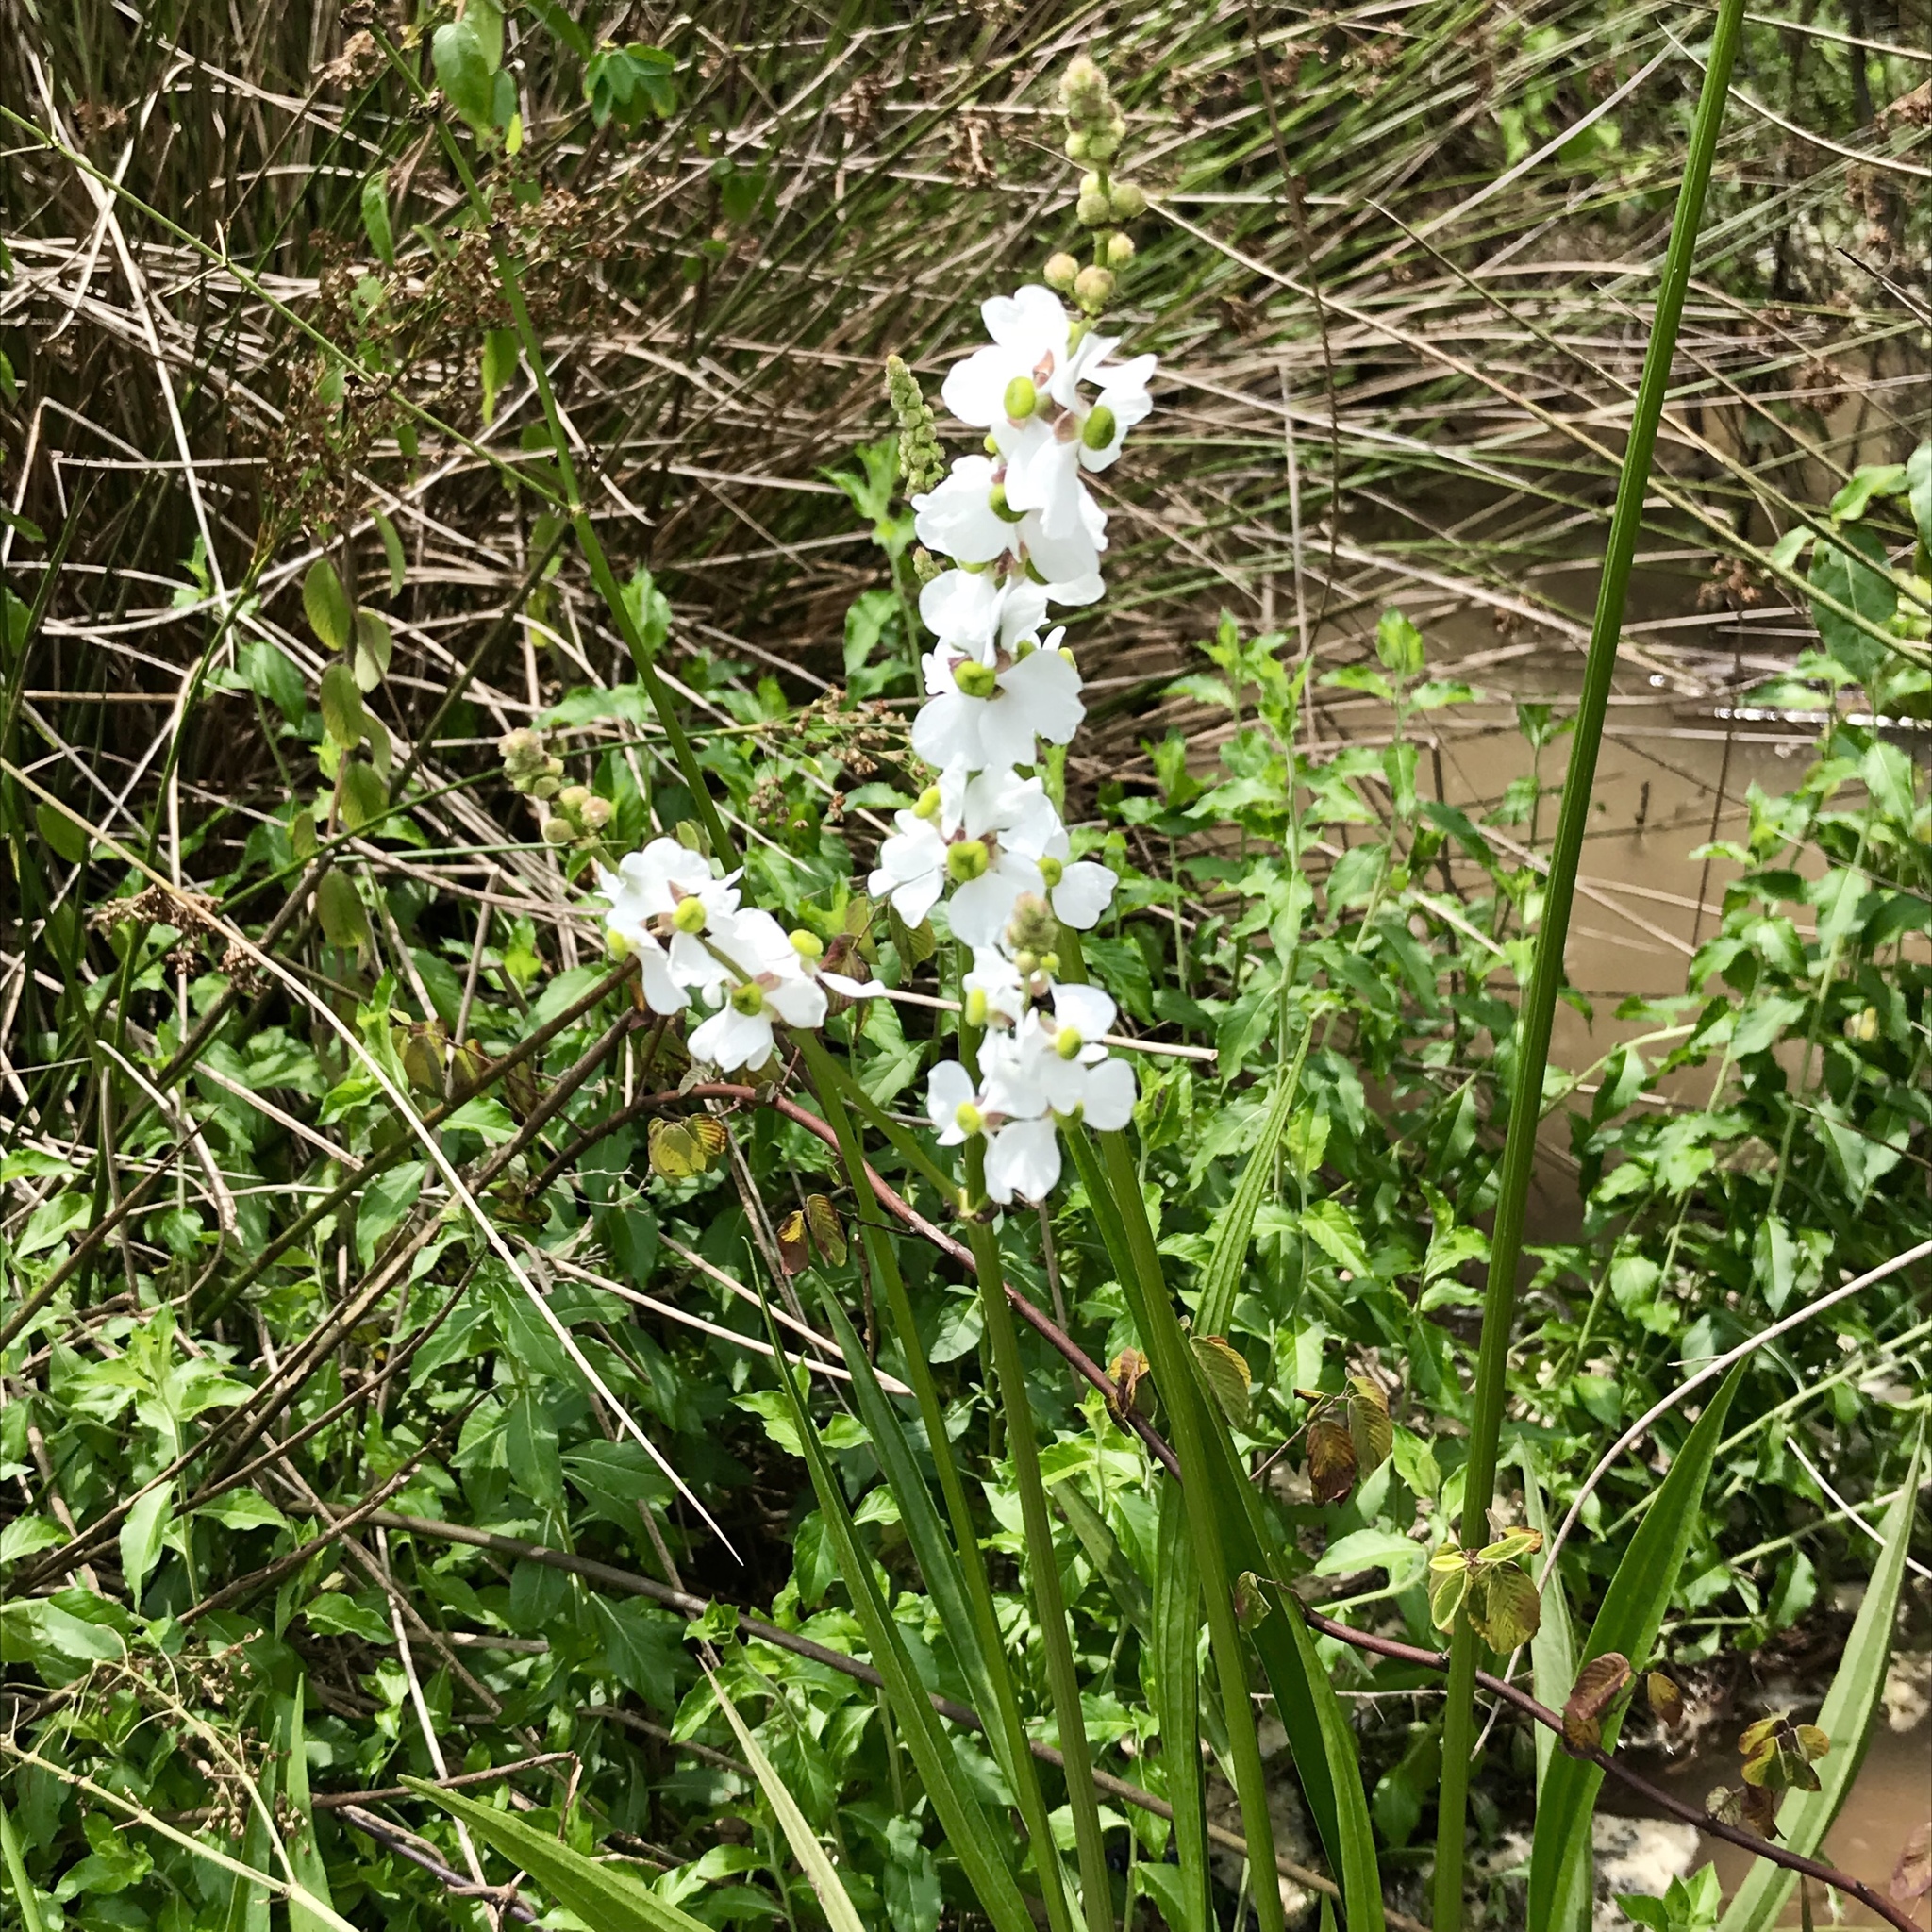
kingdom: Plantae
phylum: Tracheophyta
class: Liliopsida
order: Alismatales
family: Alismataceae
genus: Sagittaria
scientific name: Sagittaria papillosa
